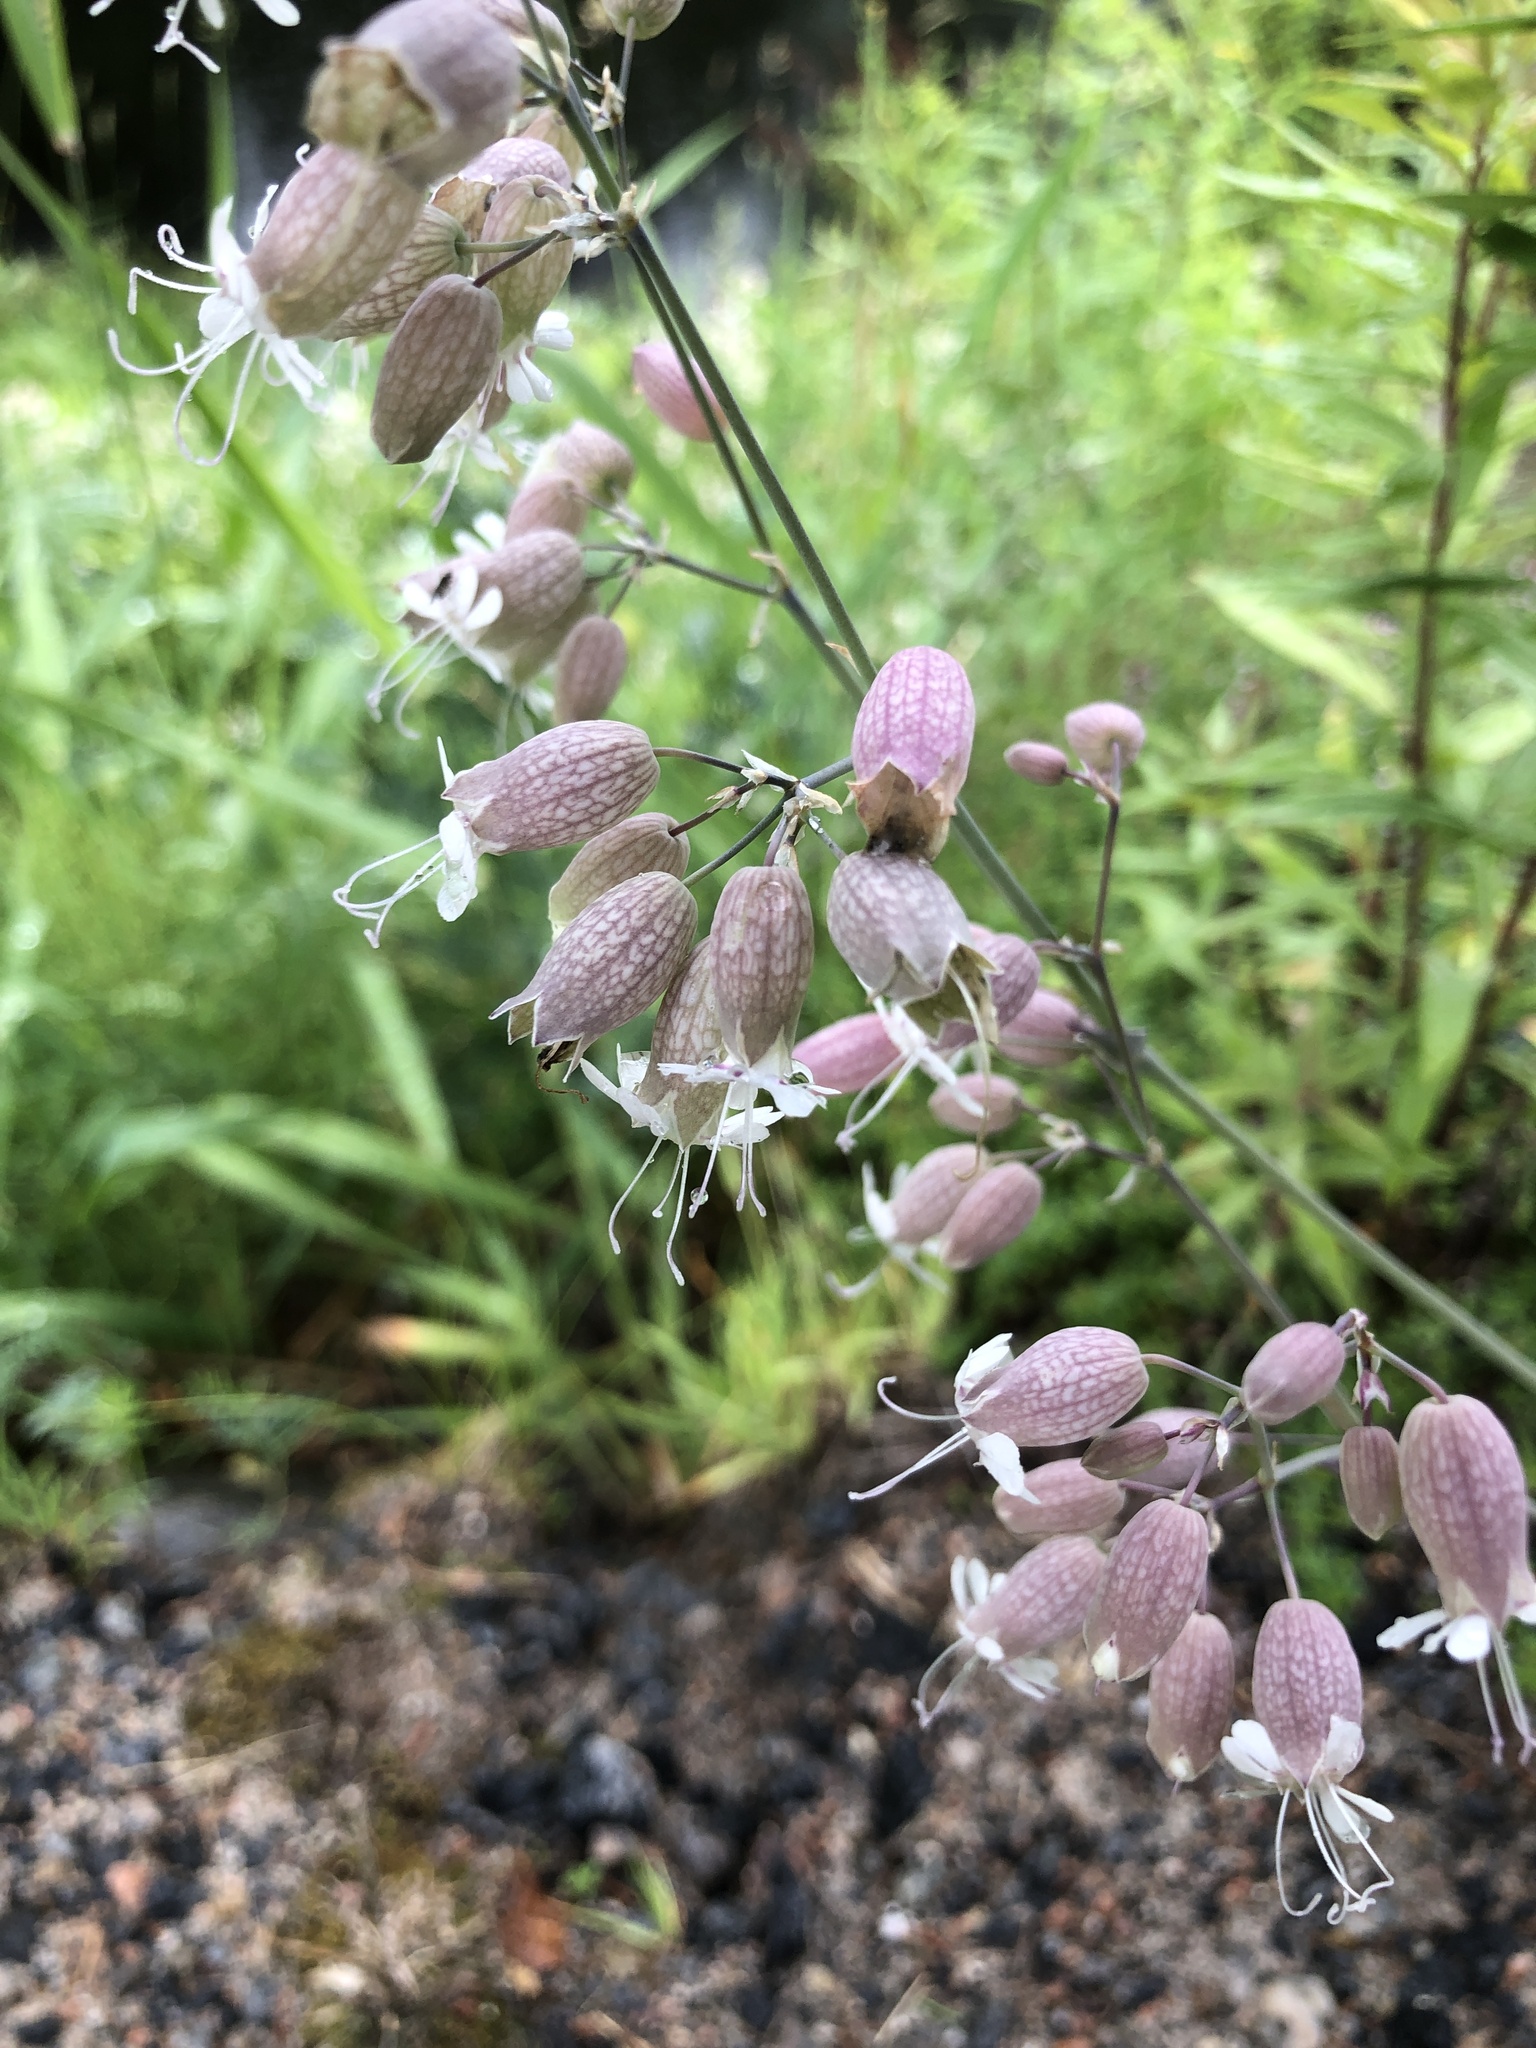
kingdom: Plantae
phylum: Tracheophyta
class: Magnoliopsida
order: Caryophyllales
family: Caryophyllaceae
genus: Silene
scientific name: Silene vulgaris
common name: Bladder campion
